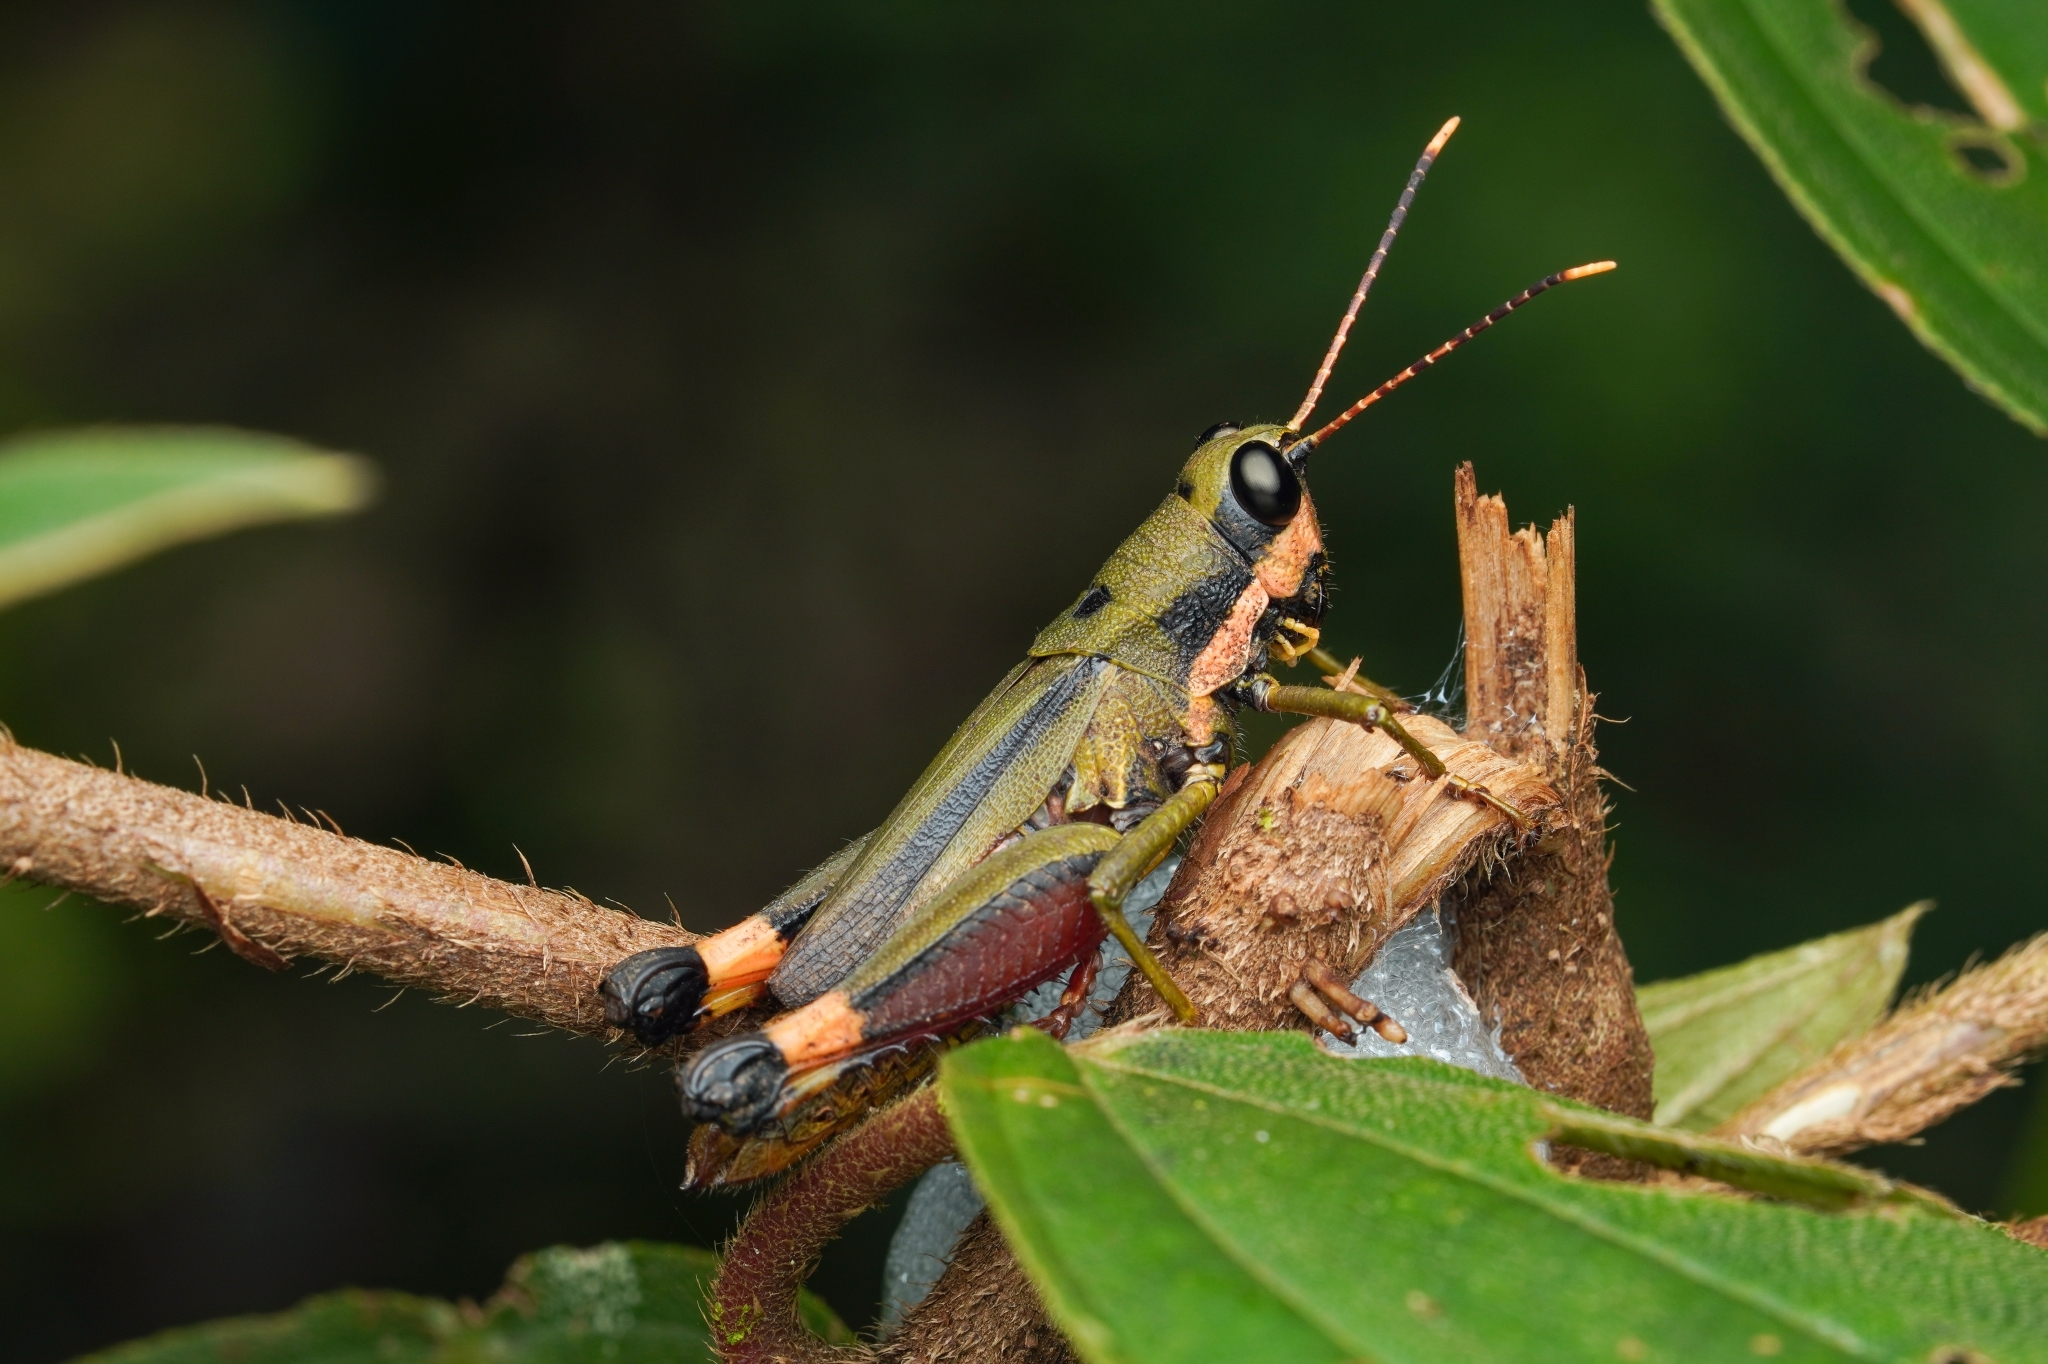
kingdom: Animalia
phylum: Arthropoda
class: Insecta
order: Orthoptera
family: Acrididae
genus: Traulia
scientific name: Traulia bimaculata
